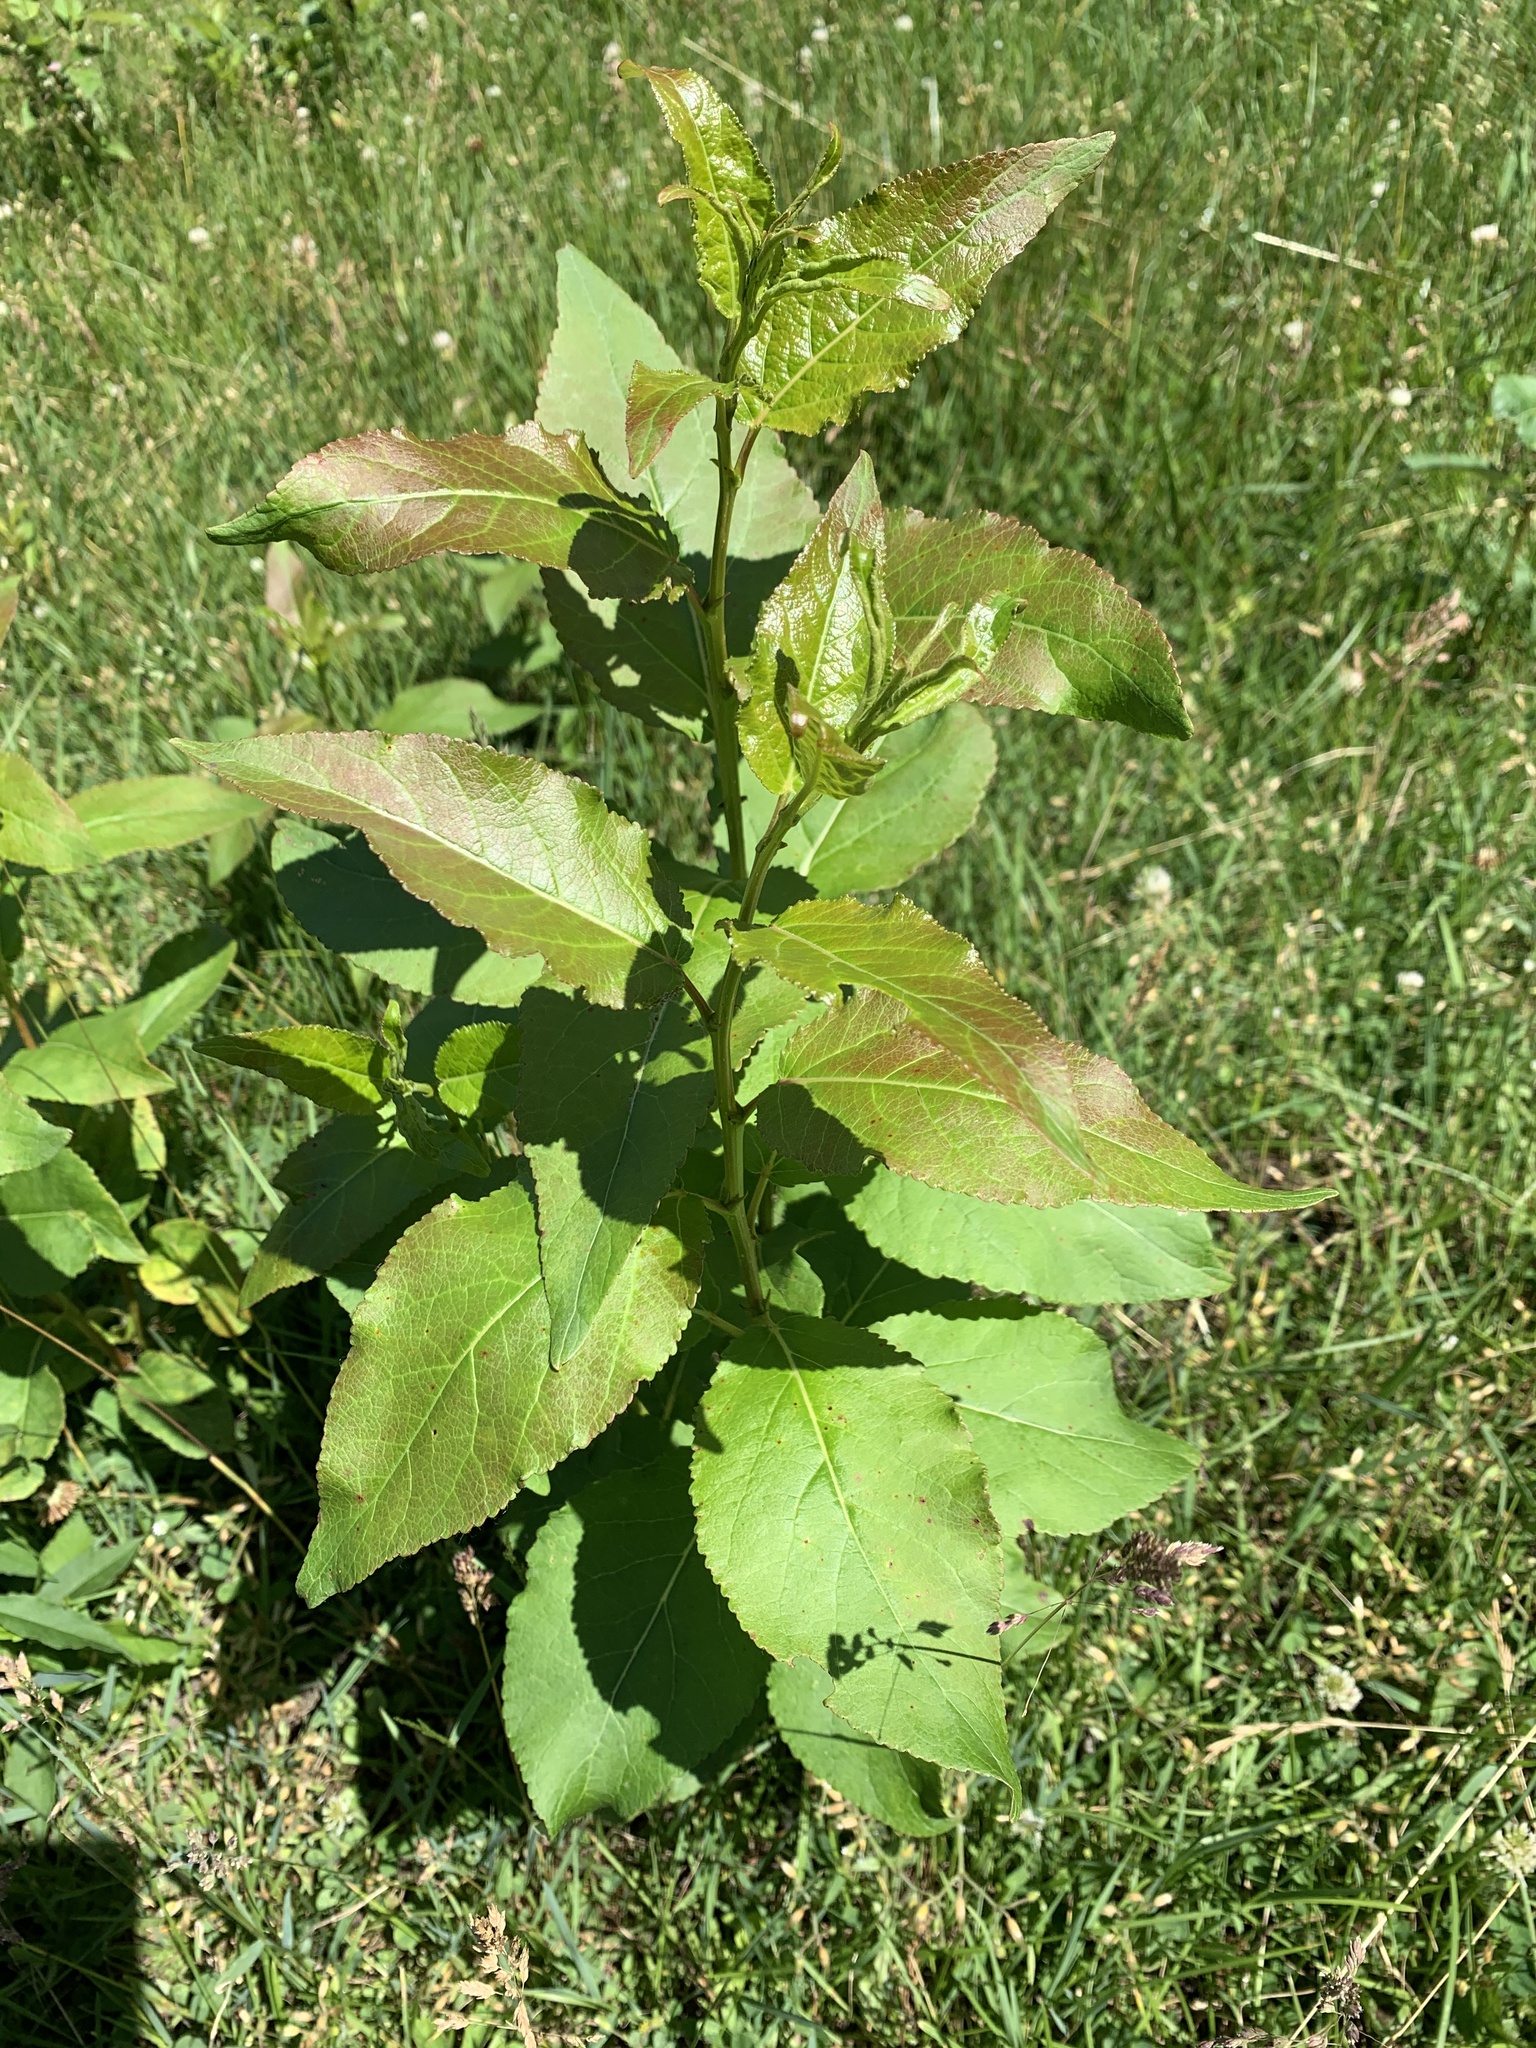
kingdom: Plantae
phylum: Tracheophyta
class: Magnoliopsida
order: Malpighiales
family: Salicaceae
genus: Populus
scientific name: Populus balsamifera
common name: Balsam poplar
